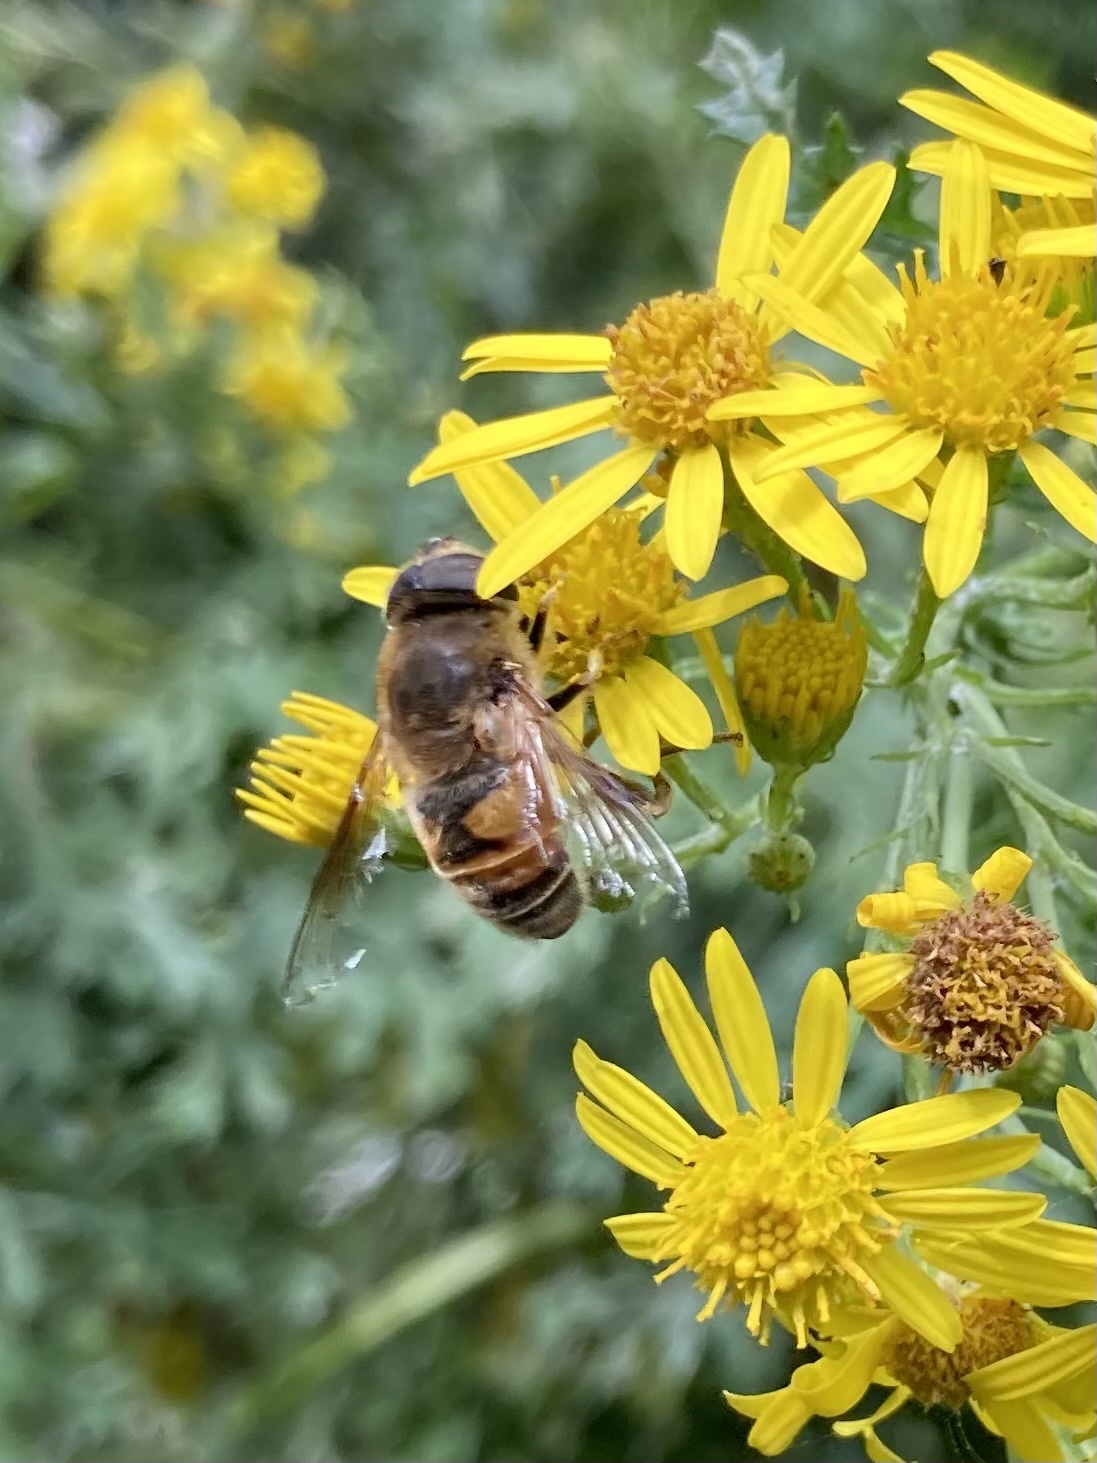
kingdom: Animalia
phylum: Arthropoda
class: Insecta
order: Diptera
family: Syrphidae
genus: Eristalis
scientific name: Eristalis tenax
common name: Drone fly
